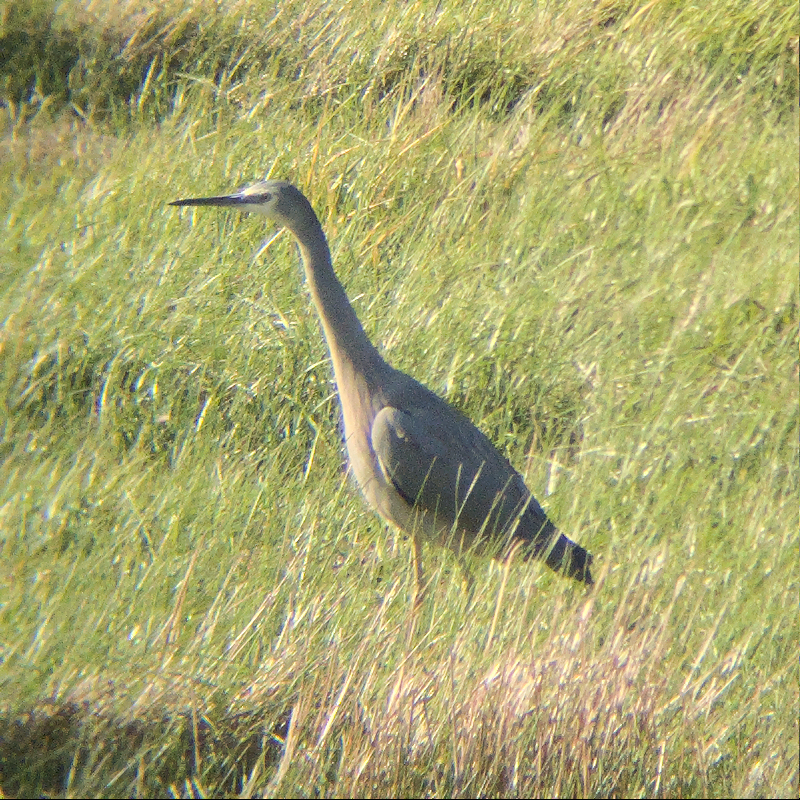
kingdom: Animalia
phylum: Chordata
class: Aves
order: Pelecaniformes
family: Ardeidae
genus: Egretta
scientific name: Egretta novaehollandiae
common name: White-faced heron
